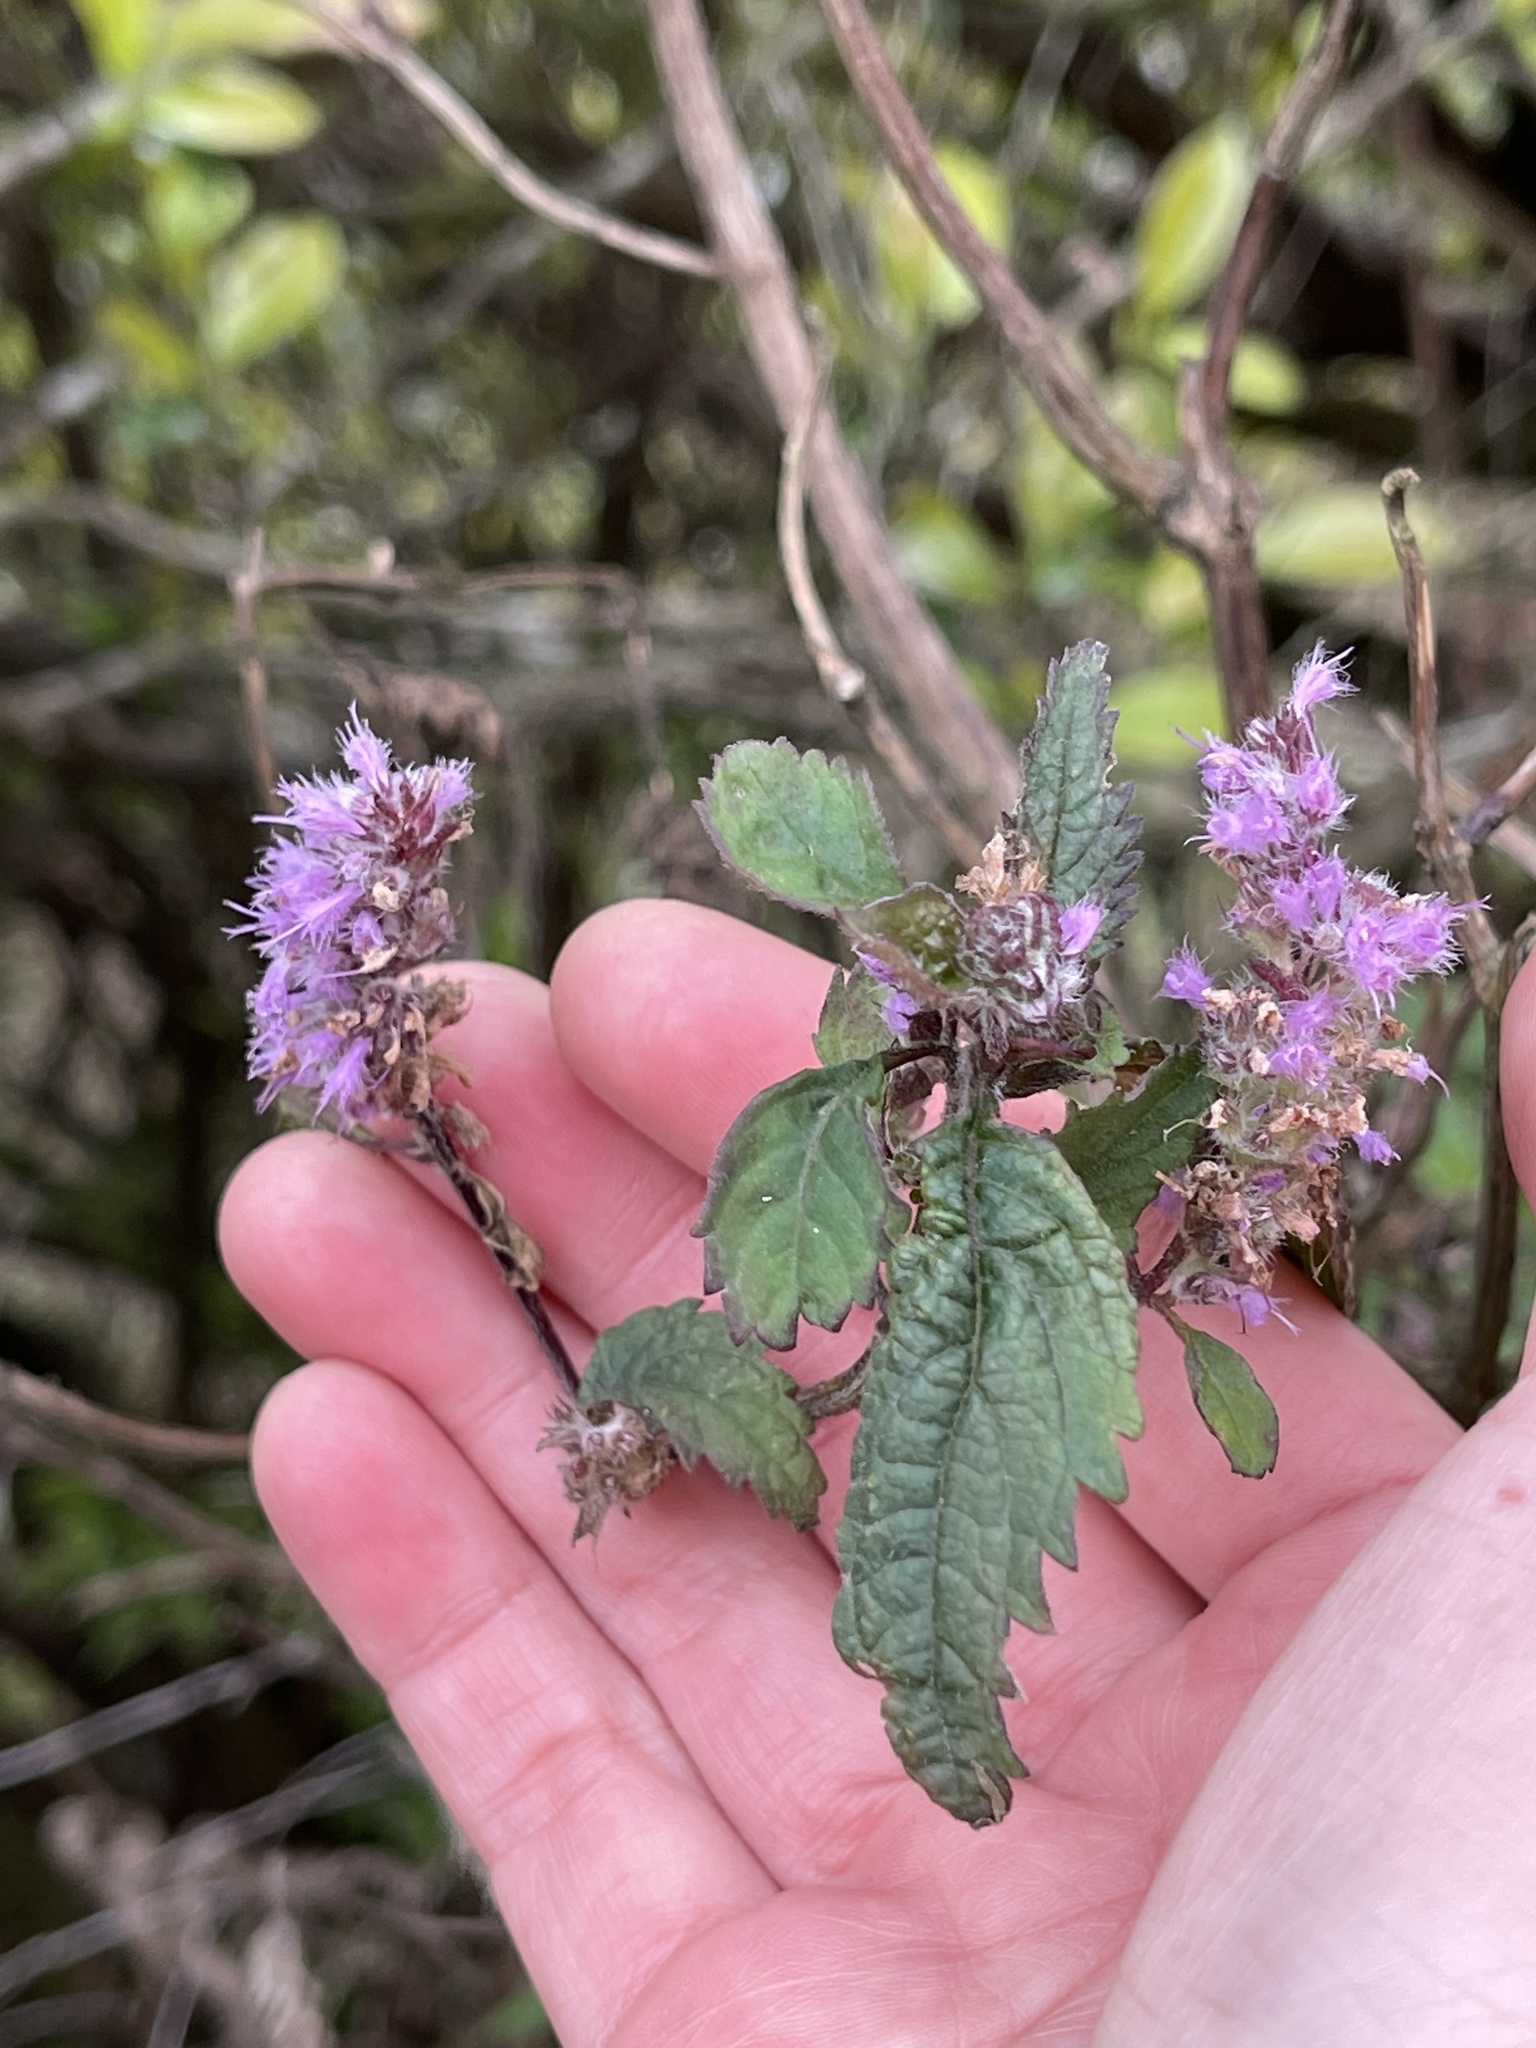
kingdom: Plantae
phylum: Tracheophyta
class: Magnoliopsida
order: Lamiales
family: Lamiaceae
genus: Elsholtzia
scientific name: Elsholtzia argyi
